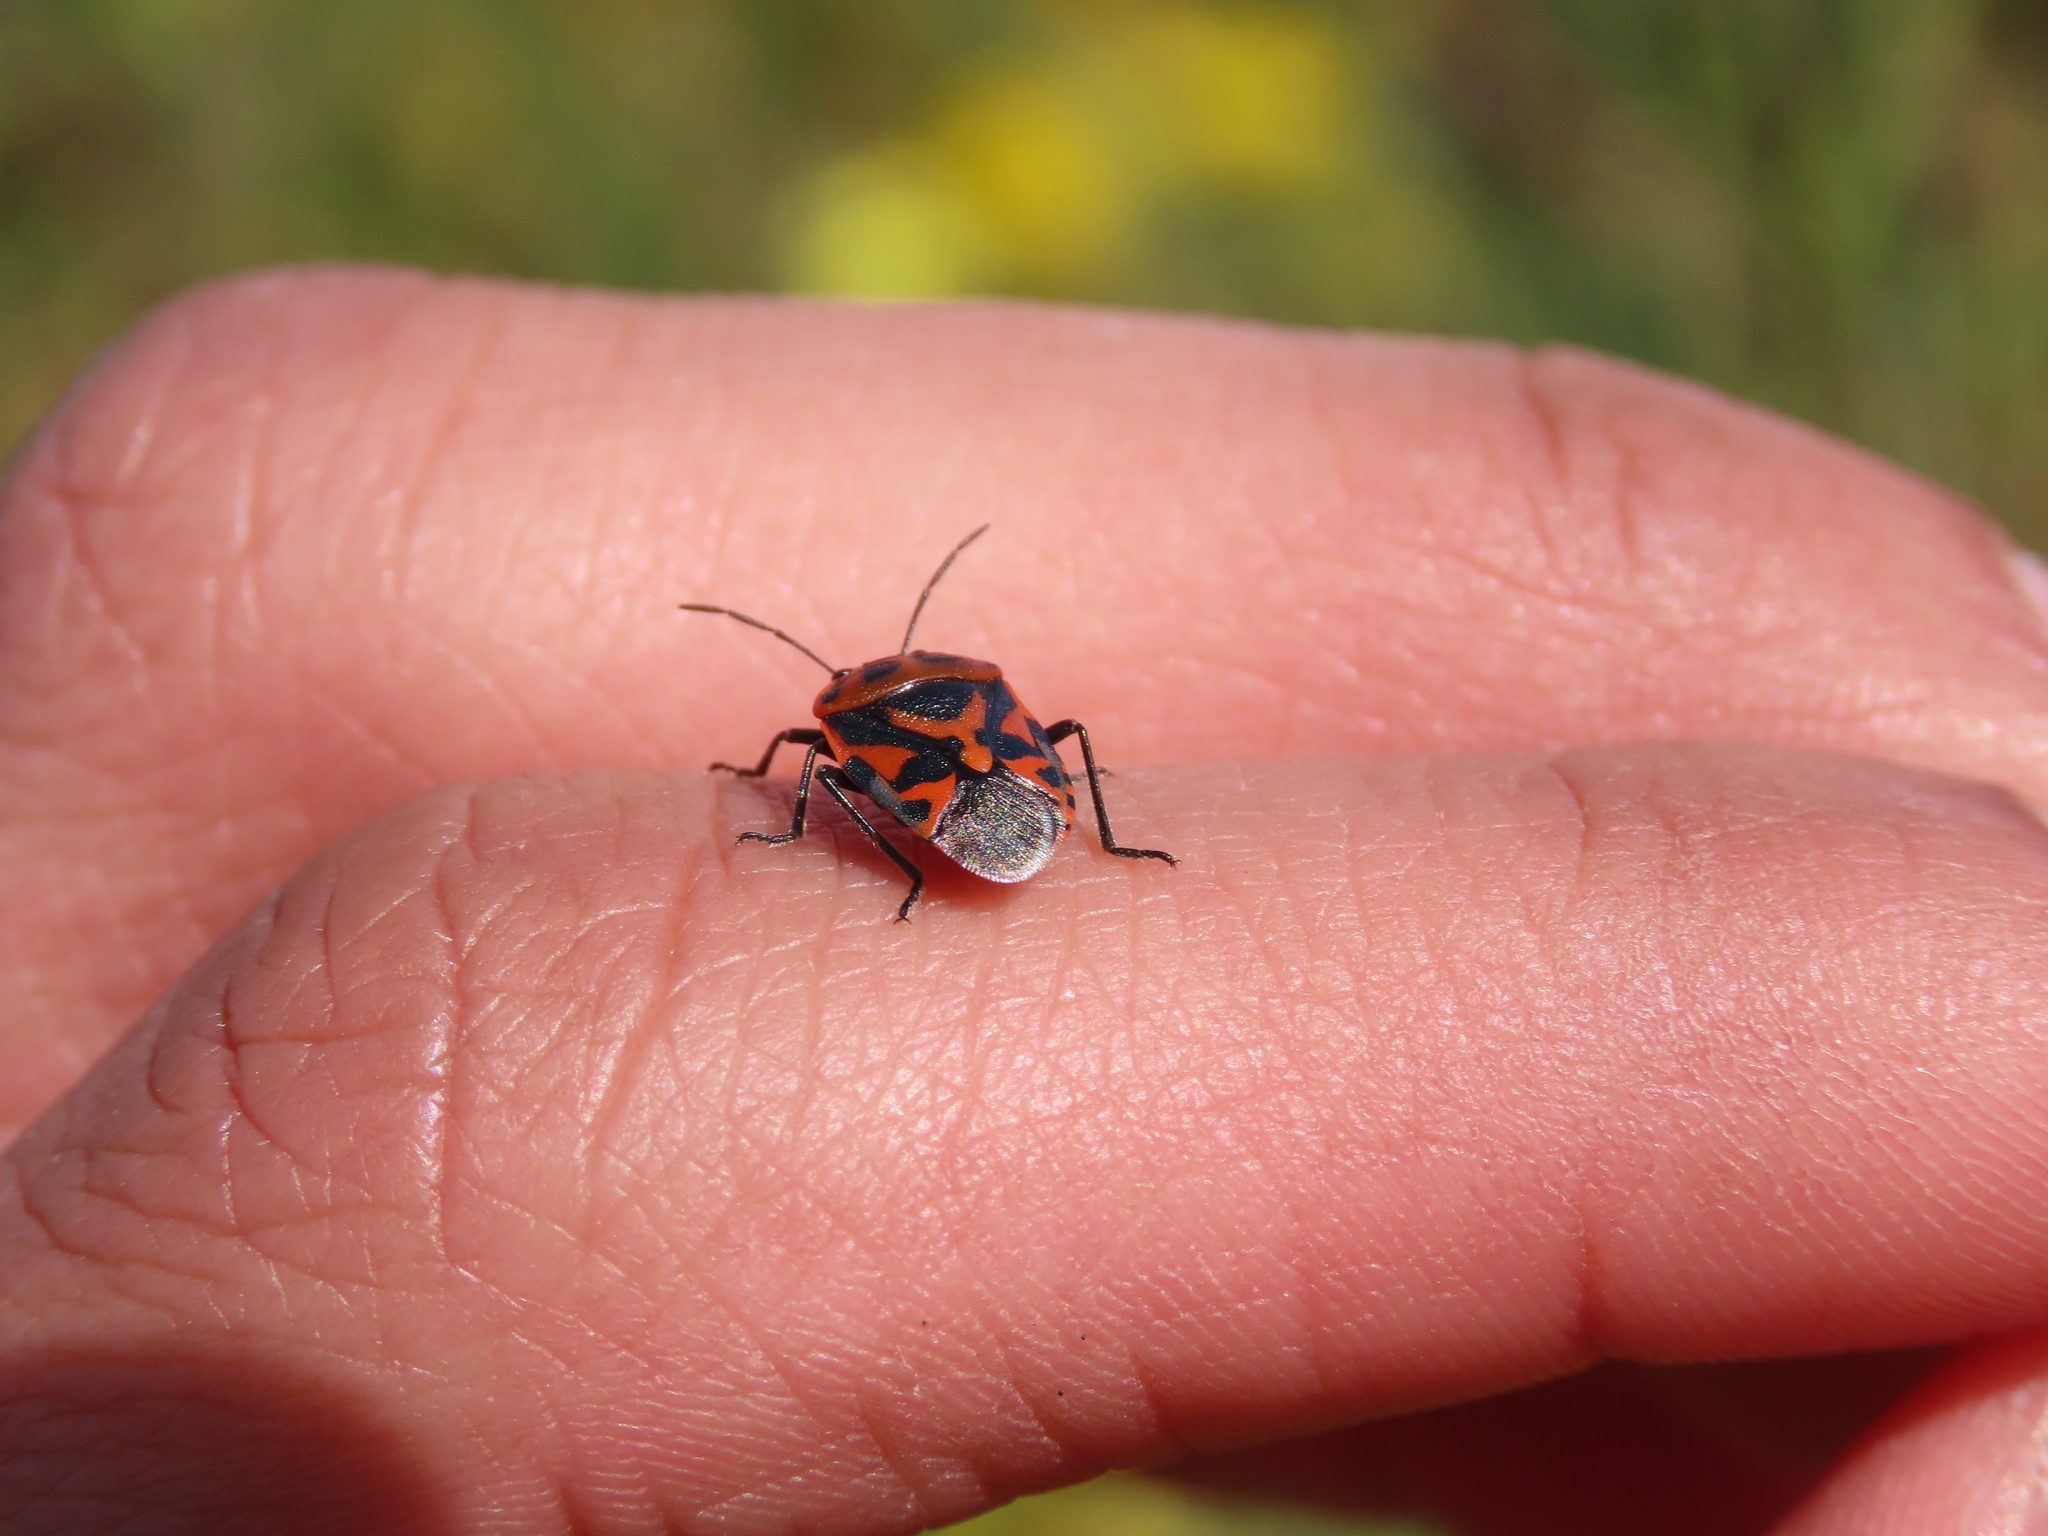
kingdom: Animalia
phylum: Arthropoda
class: Insecta
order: Hemiptera
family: Pentatomidae
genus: Eurydema
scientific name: Eurydema ornata
